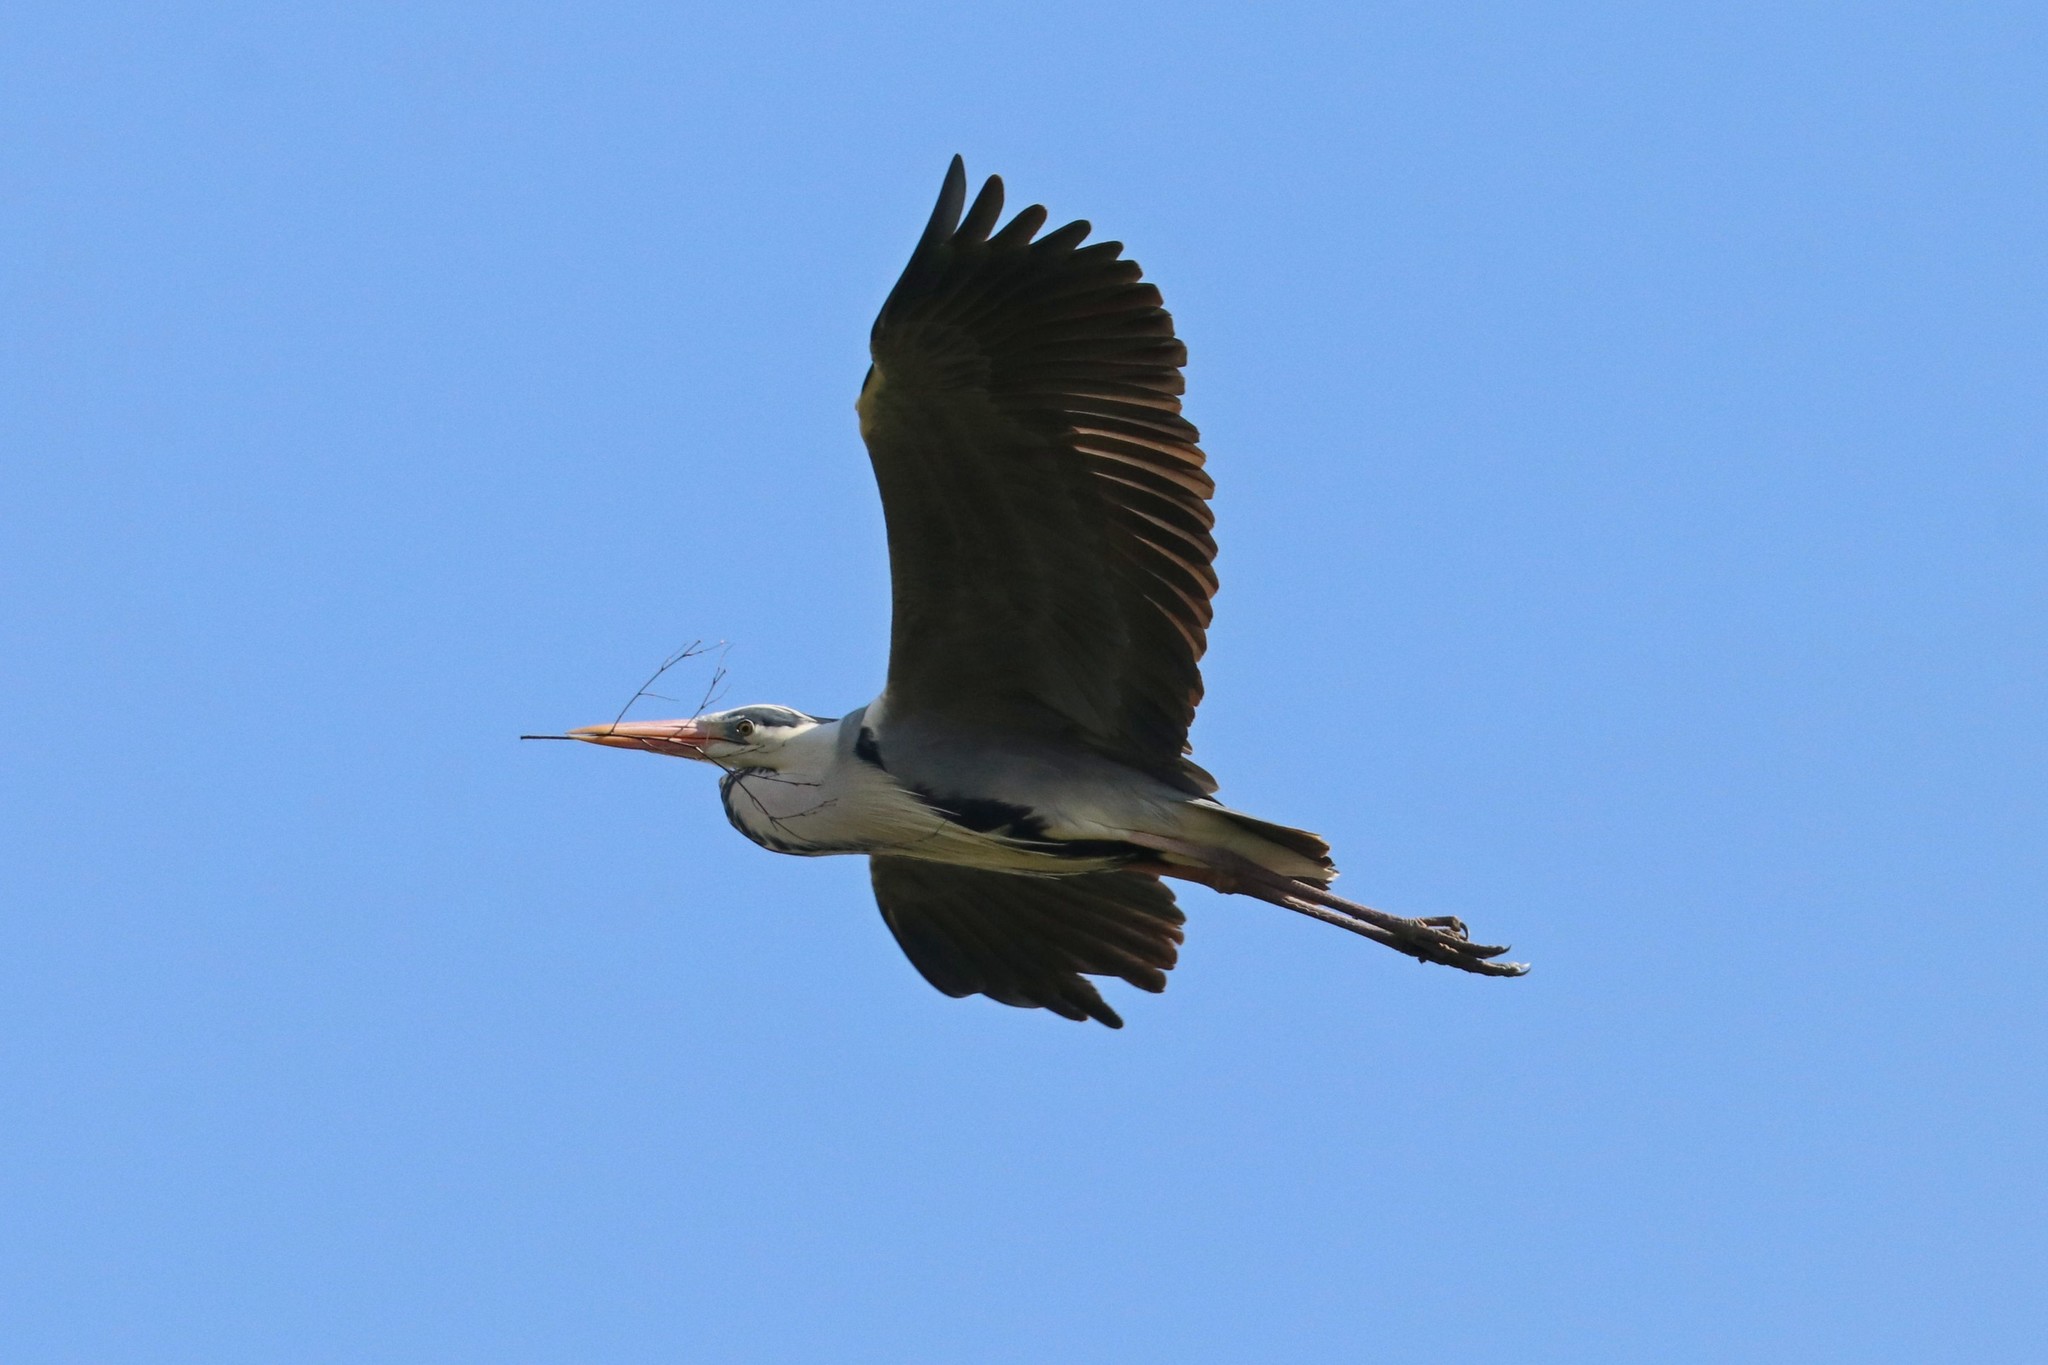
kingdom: Animalia
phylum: Chordata
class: Aves
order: Pelecaniformes
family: Ardeidae
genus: Ardea
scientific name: Ardea cinerea
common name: Grey heron
